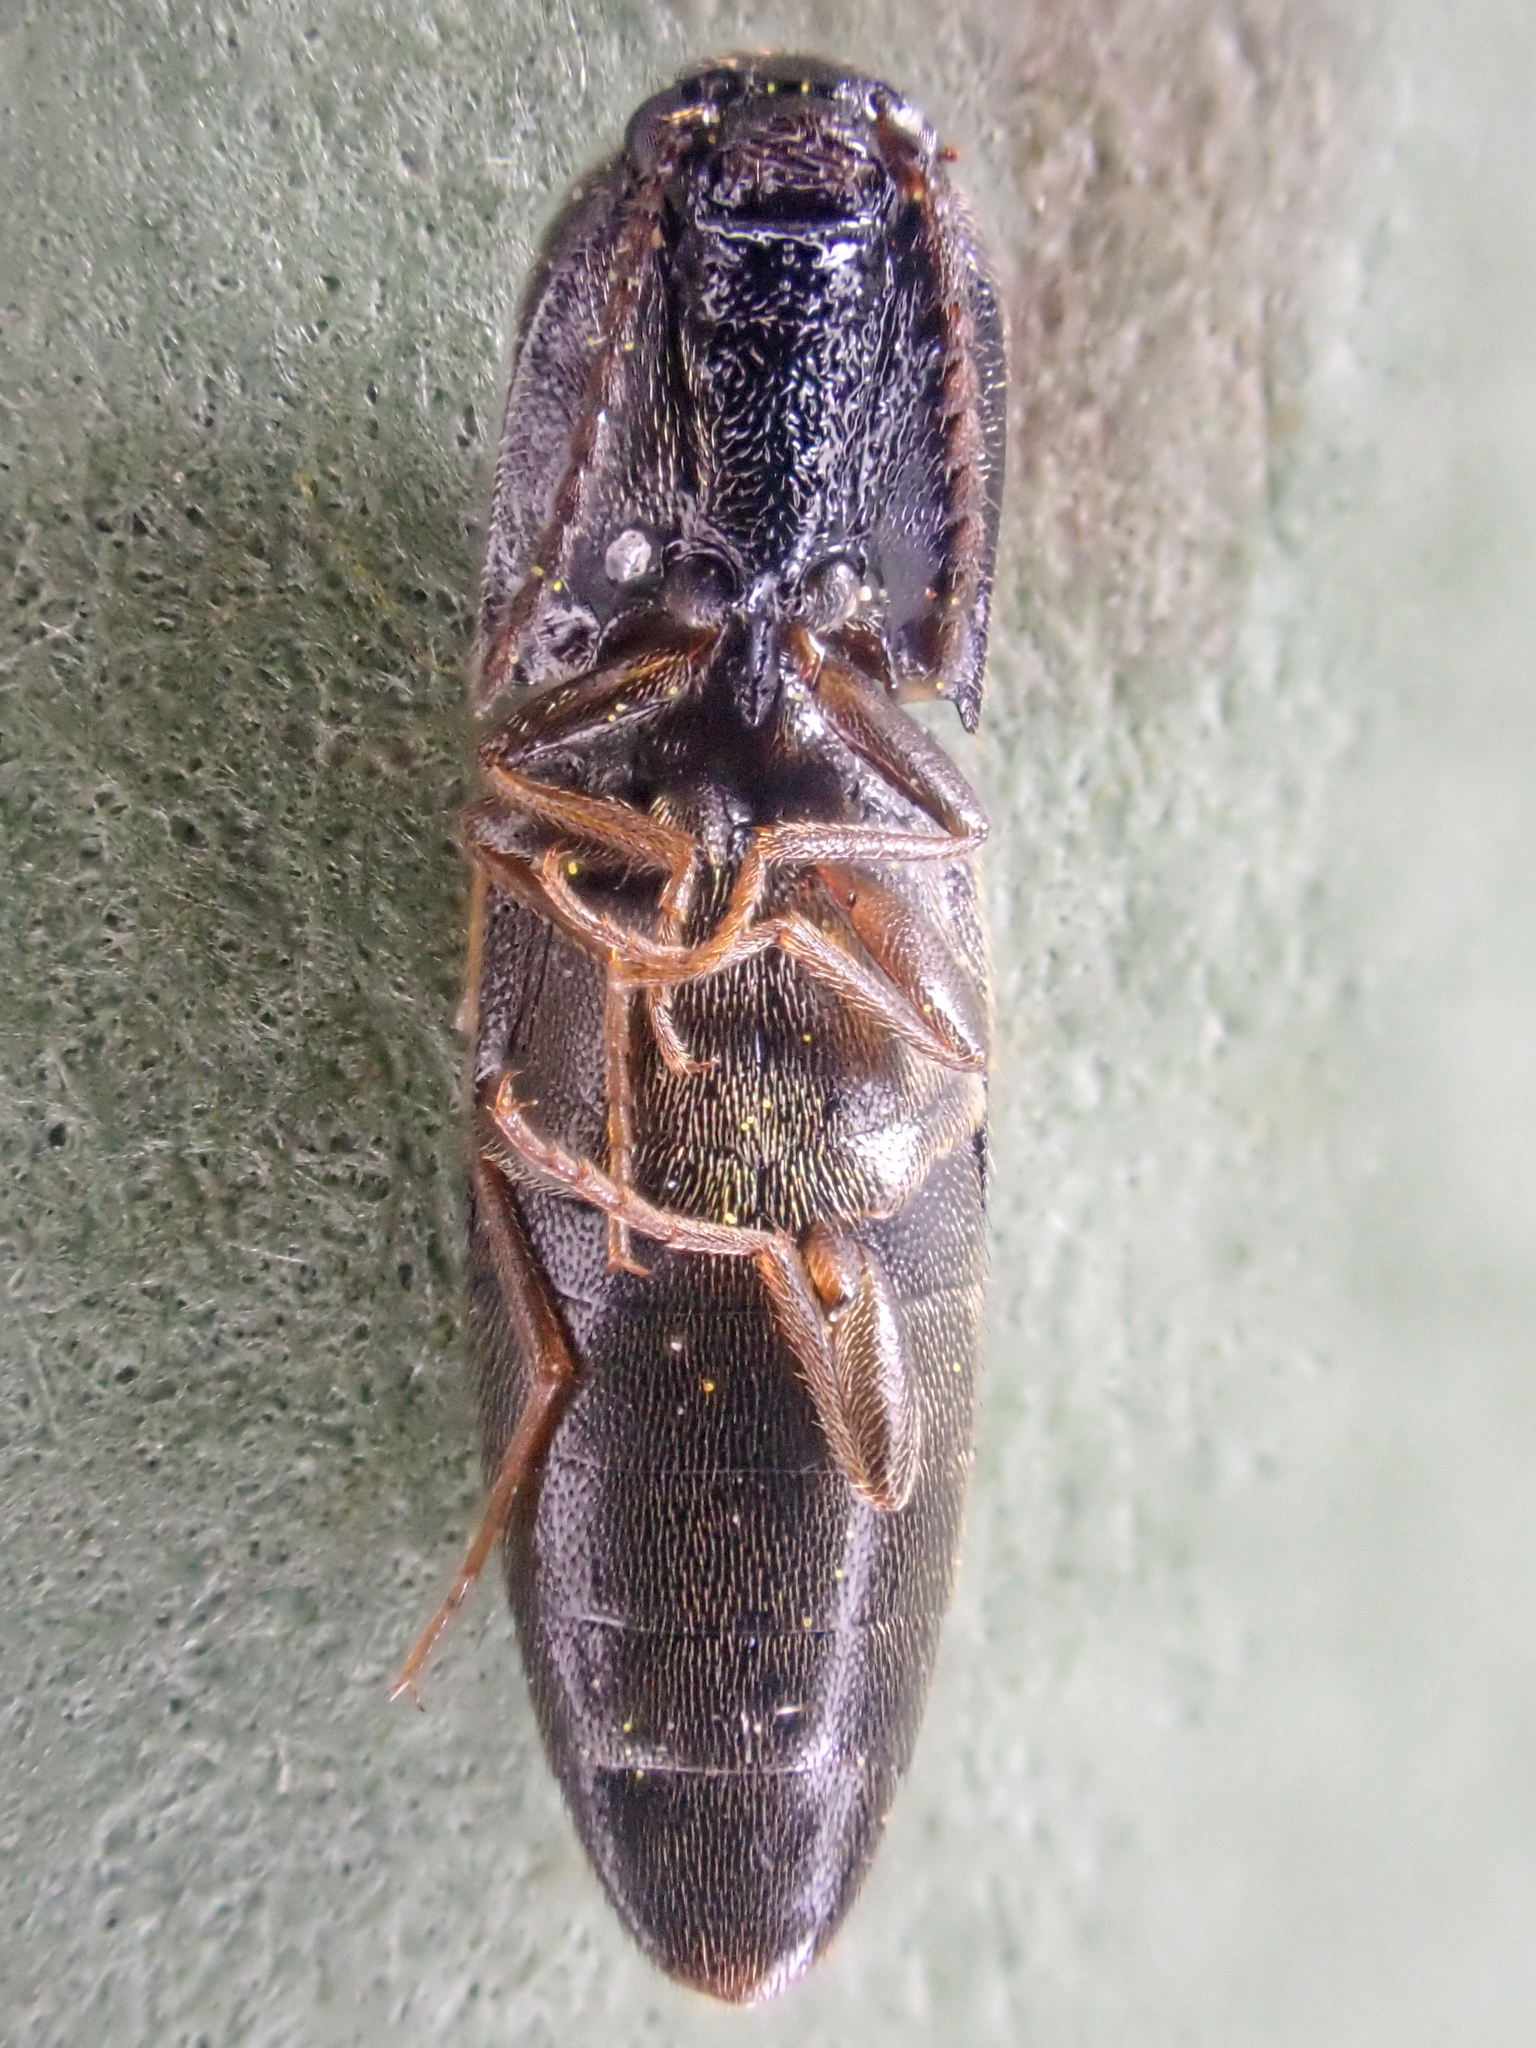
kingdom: Animalia
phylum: Arthropoda
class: Insecta
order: Coleoptera
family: Elateridae
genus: Megapenthes
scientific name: Megapenthes caprella
